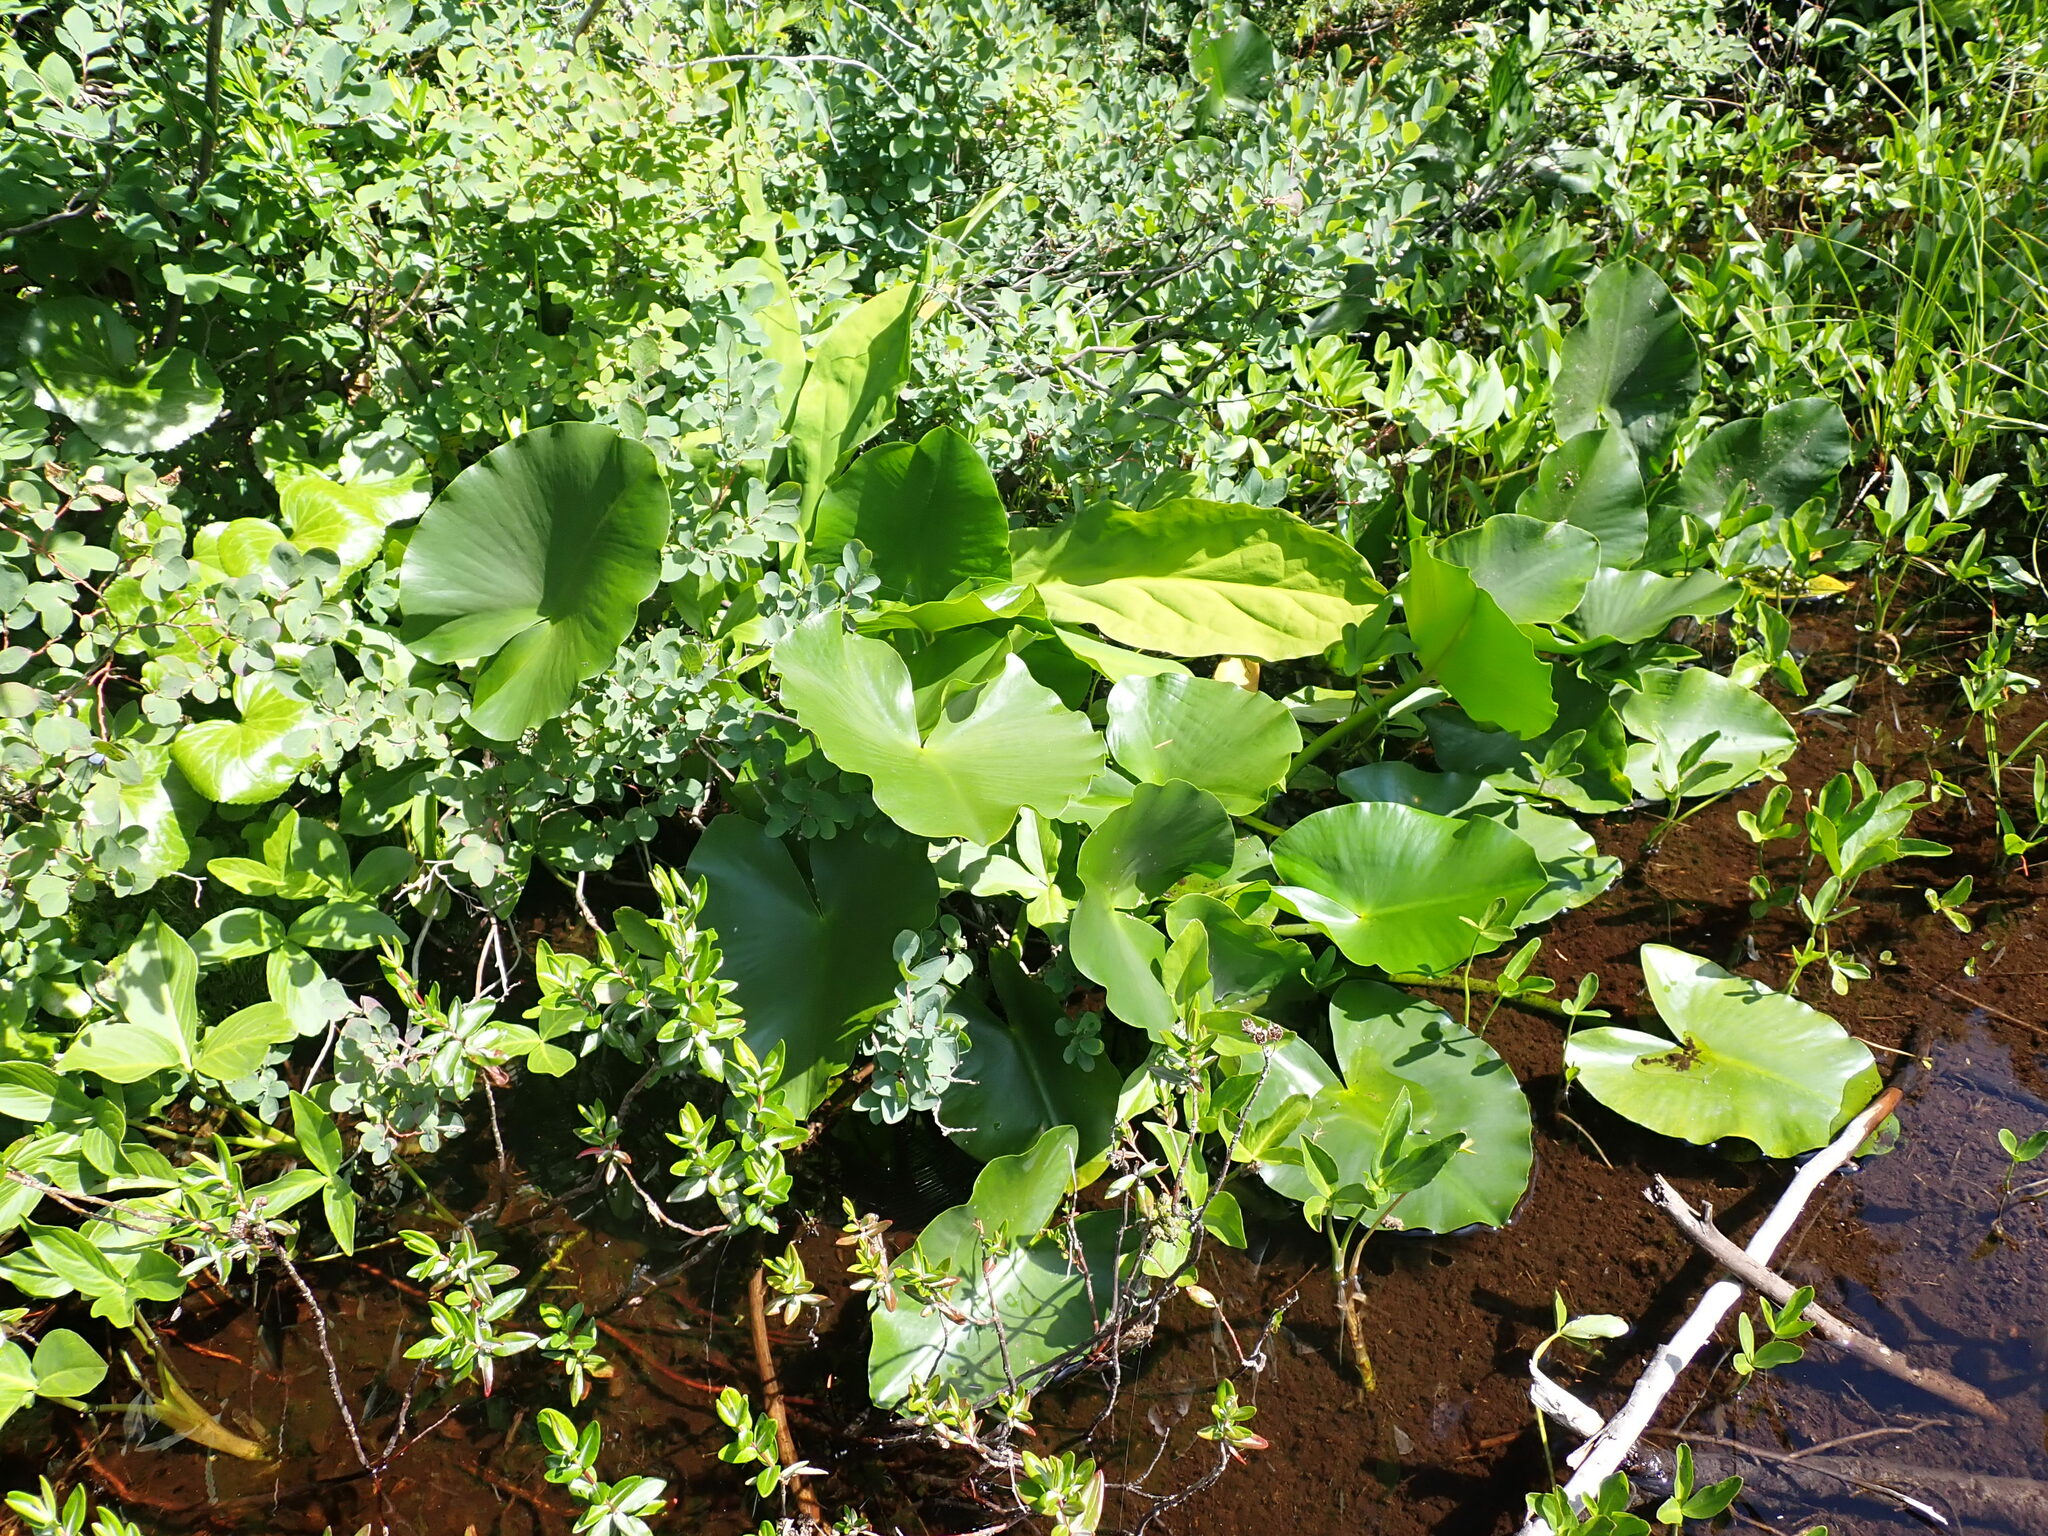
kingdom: Plantae
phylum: Tracheophyta
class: Magnoliopsida
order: Nymphaeales
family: Nymphaeaceae
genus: Nuphar
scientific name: Nuphar polysepala
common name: Rocky mountain cow-lily
